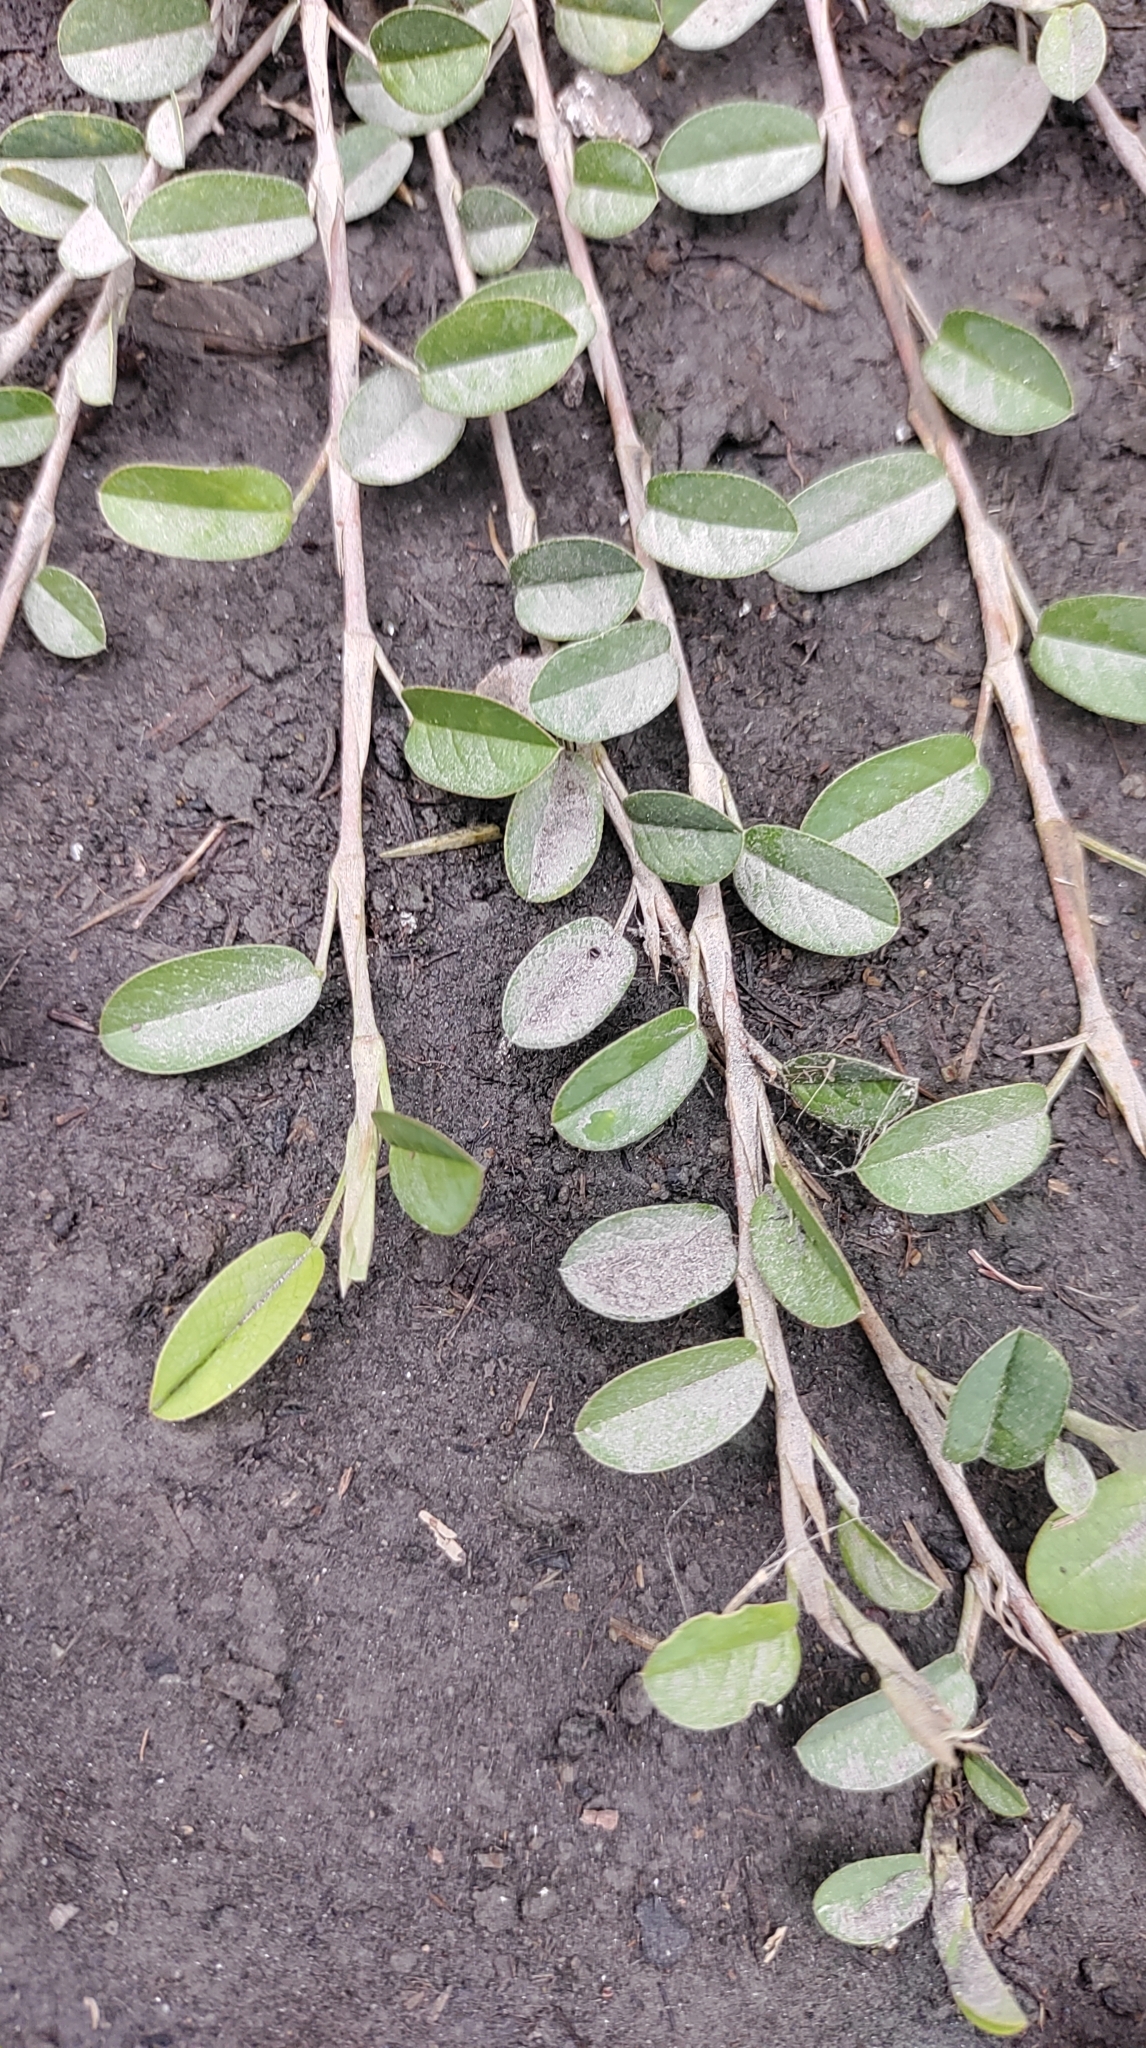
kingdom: Plantae
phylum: Tracheophyta
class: Magnoliopsida
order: Fabales
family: Fabaceae
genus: Alysicarpus
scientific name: Alysicarpus vaginalis
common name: White moneywort
